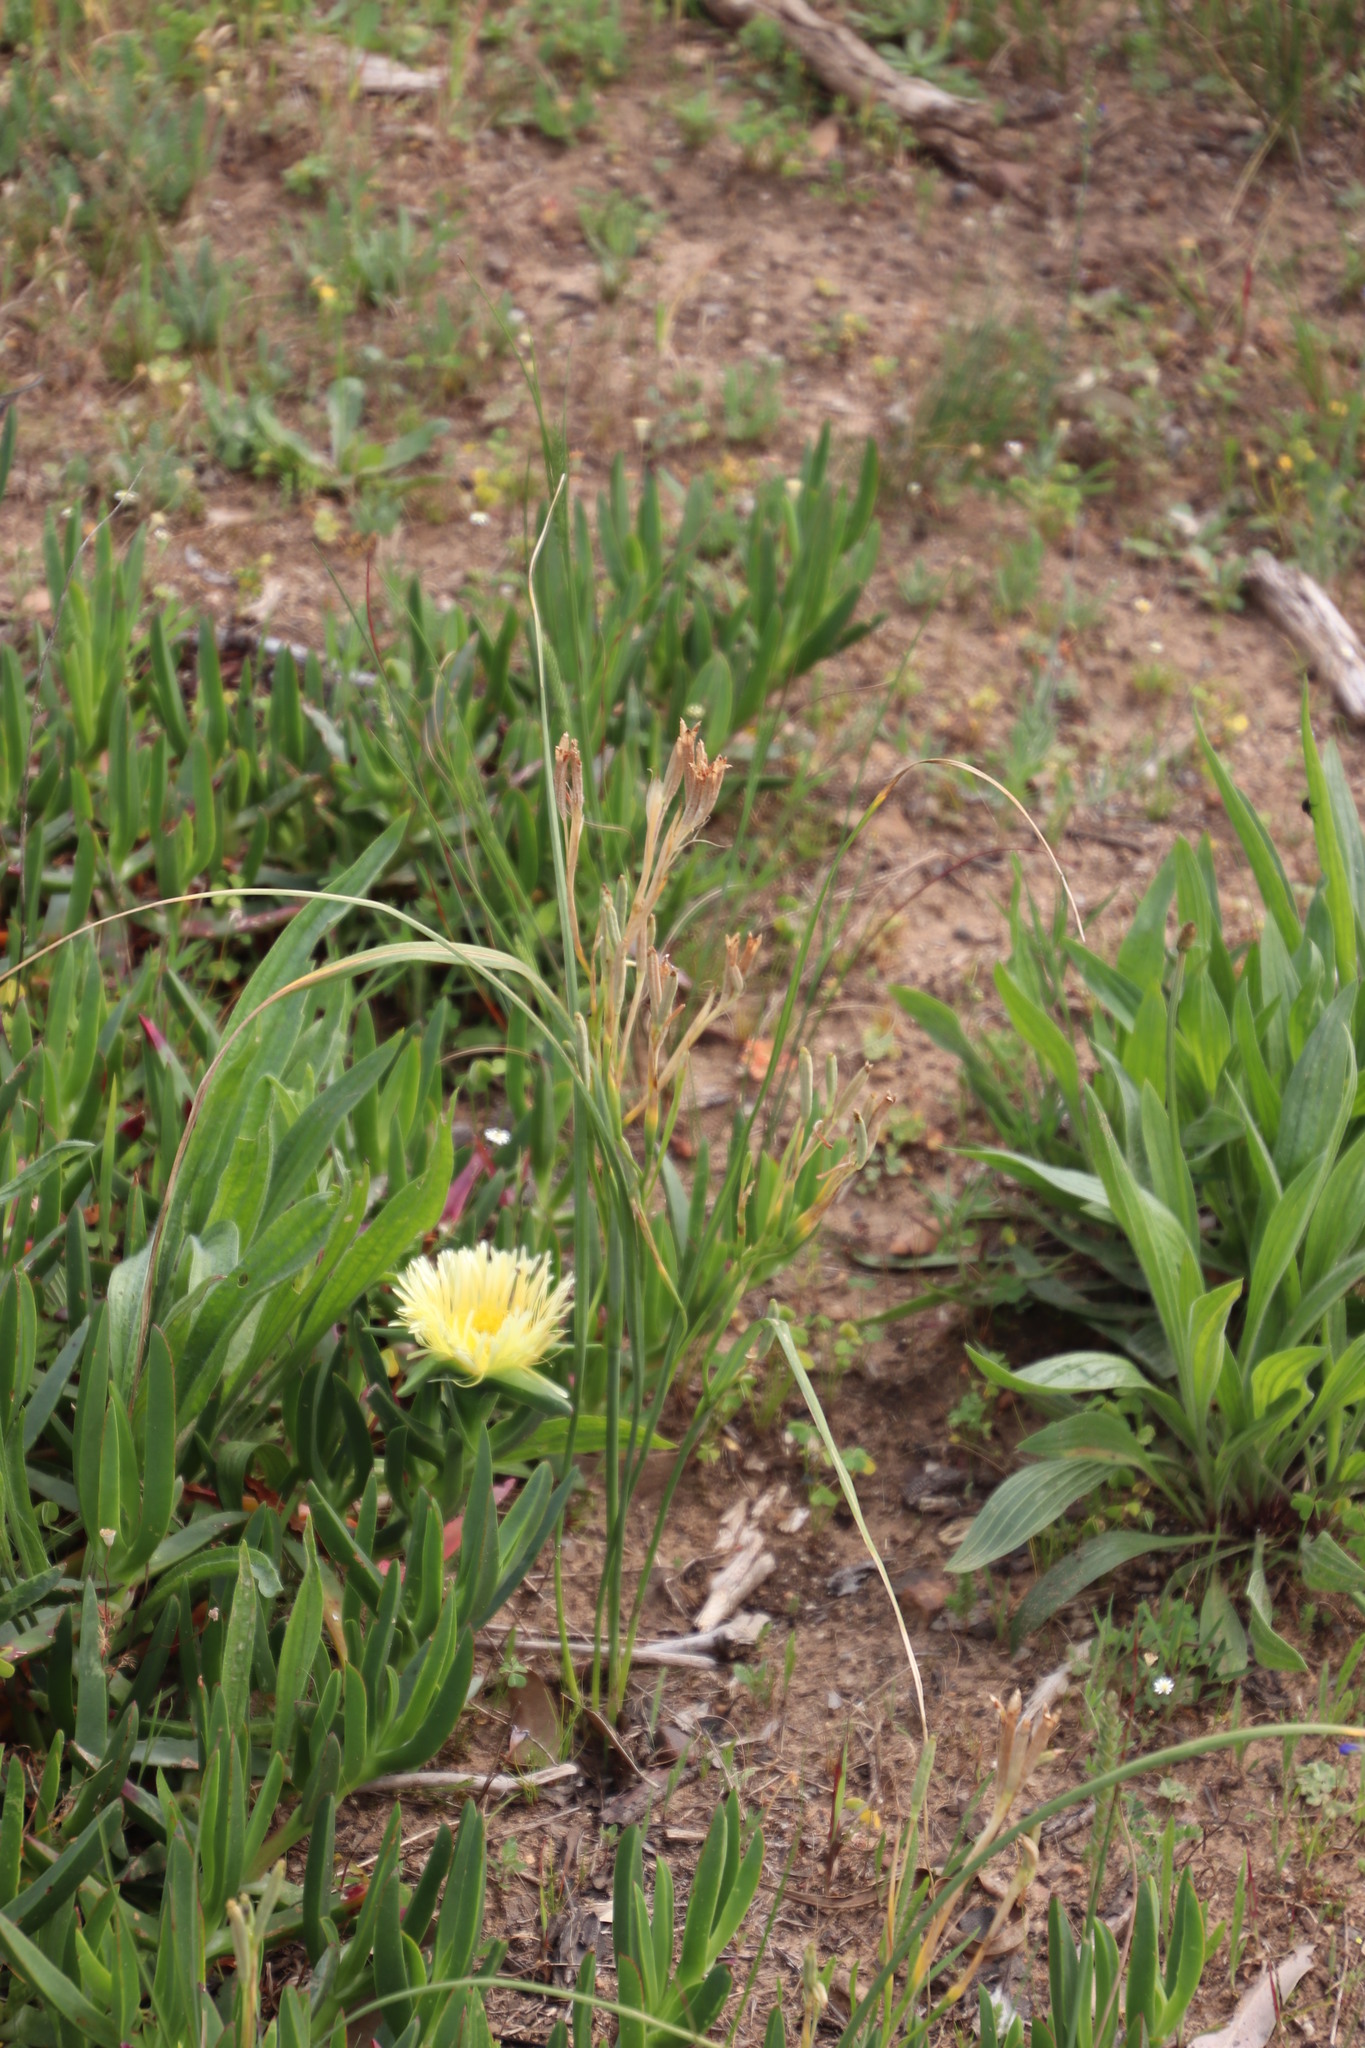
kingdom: Plantae
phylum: Tracheophyta
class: Liliopsida
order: Asparagales
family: Iridaceae
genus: Moraea
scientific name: Moraea fugax
